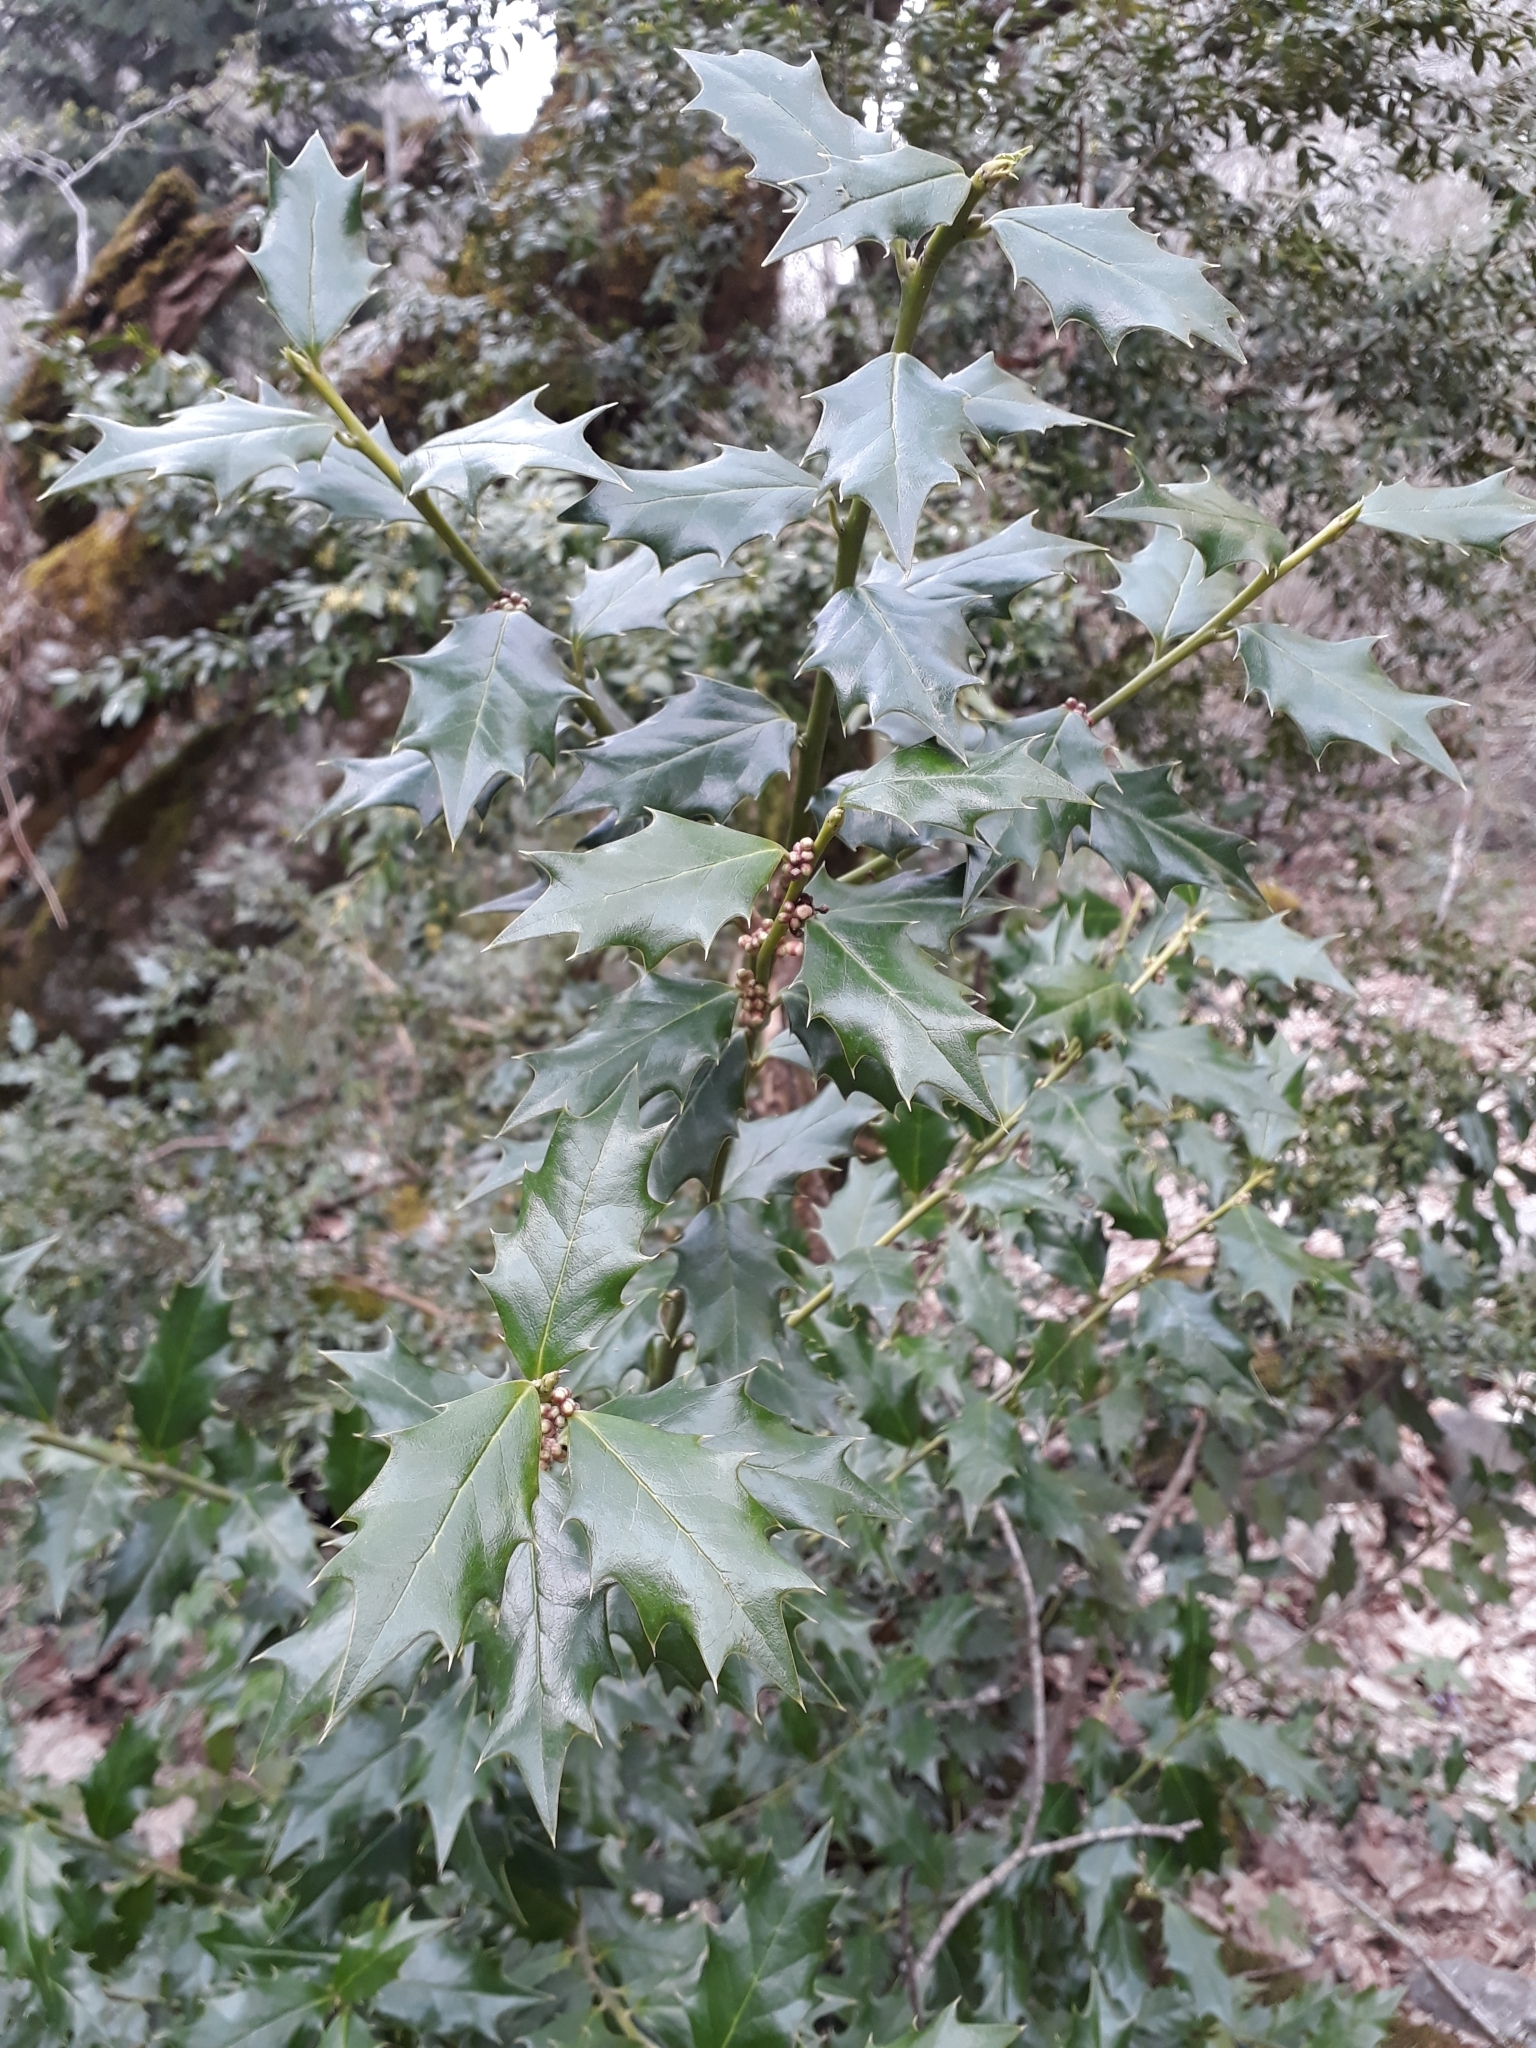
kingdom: Plantae
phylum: Tracheophyta
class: Magnoliopsida
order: Aquifoliales
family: Aquifoliaceae
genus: Ilex
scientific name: Ilex colchica
